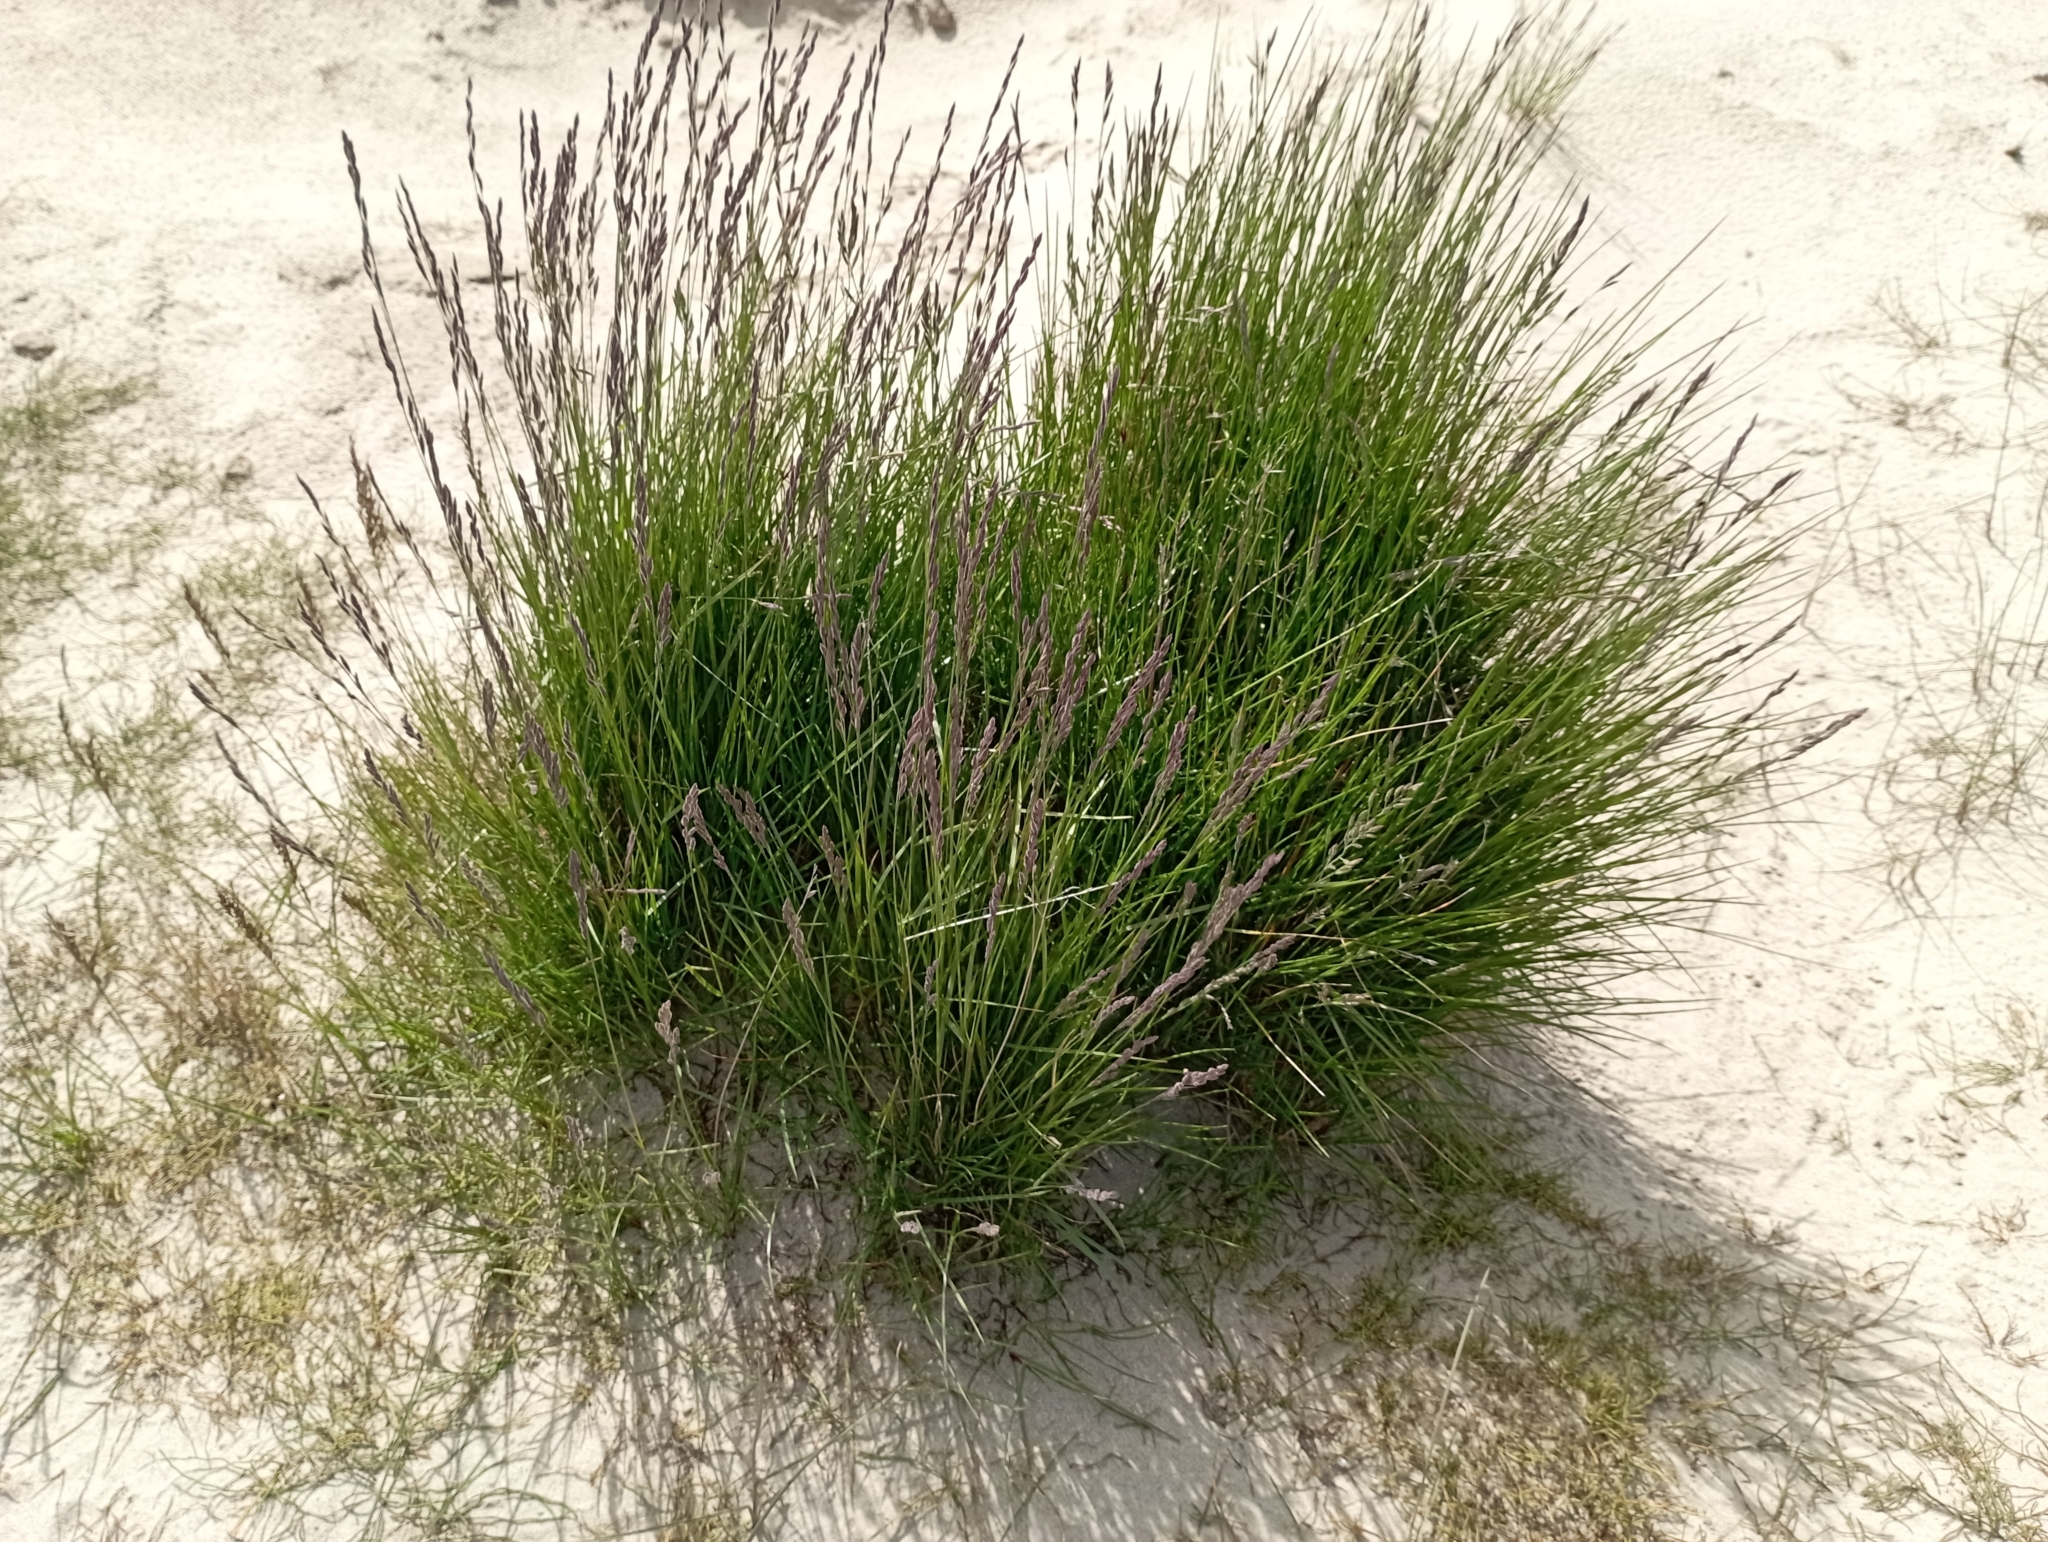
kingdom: Plantae
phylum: Tracheophyta
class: Liliopsida
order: Poales
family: Poaceae
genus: Festuca
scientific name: Festuca richardsonii
